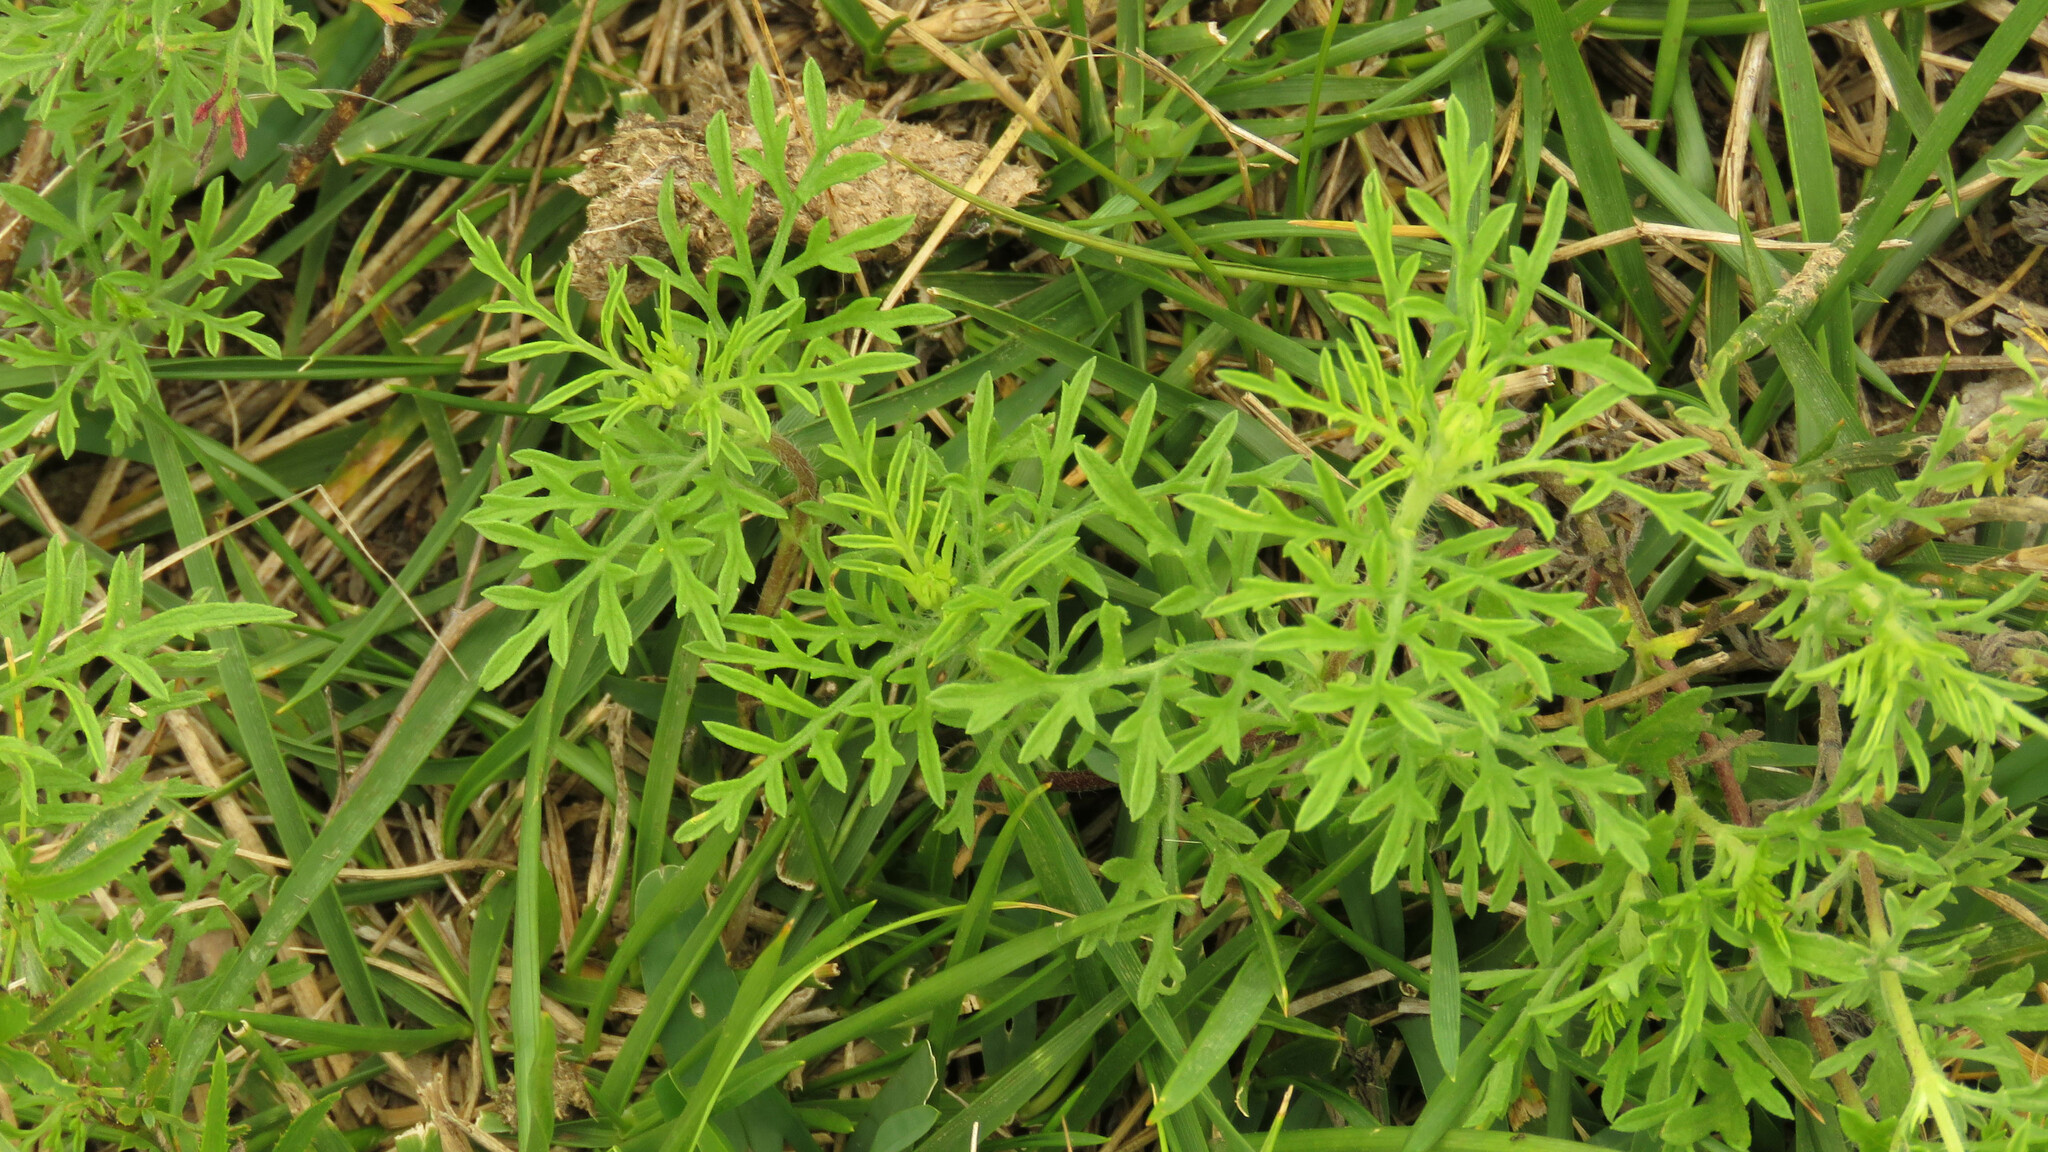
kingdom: Plantae
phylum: Tracheophyta
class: Magnoliopsida
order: Asterales
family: Asteraceae
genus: Ambrosia
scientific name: Ambrosia tenuifolia
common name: Lacy ambrosia
